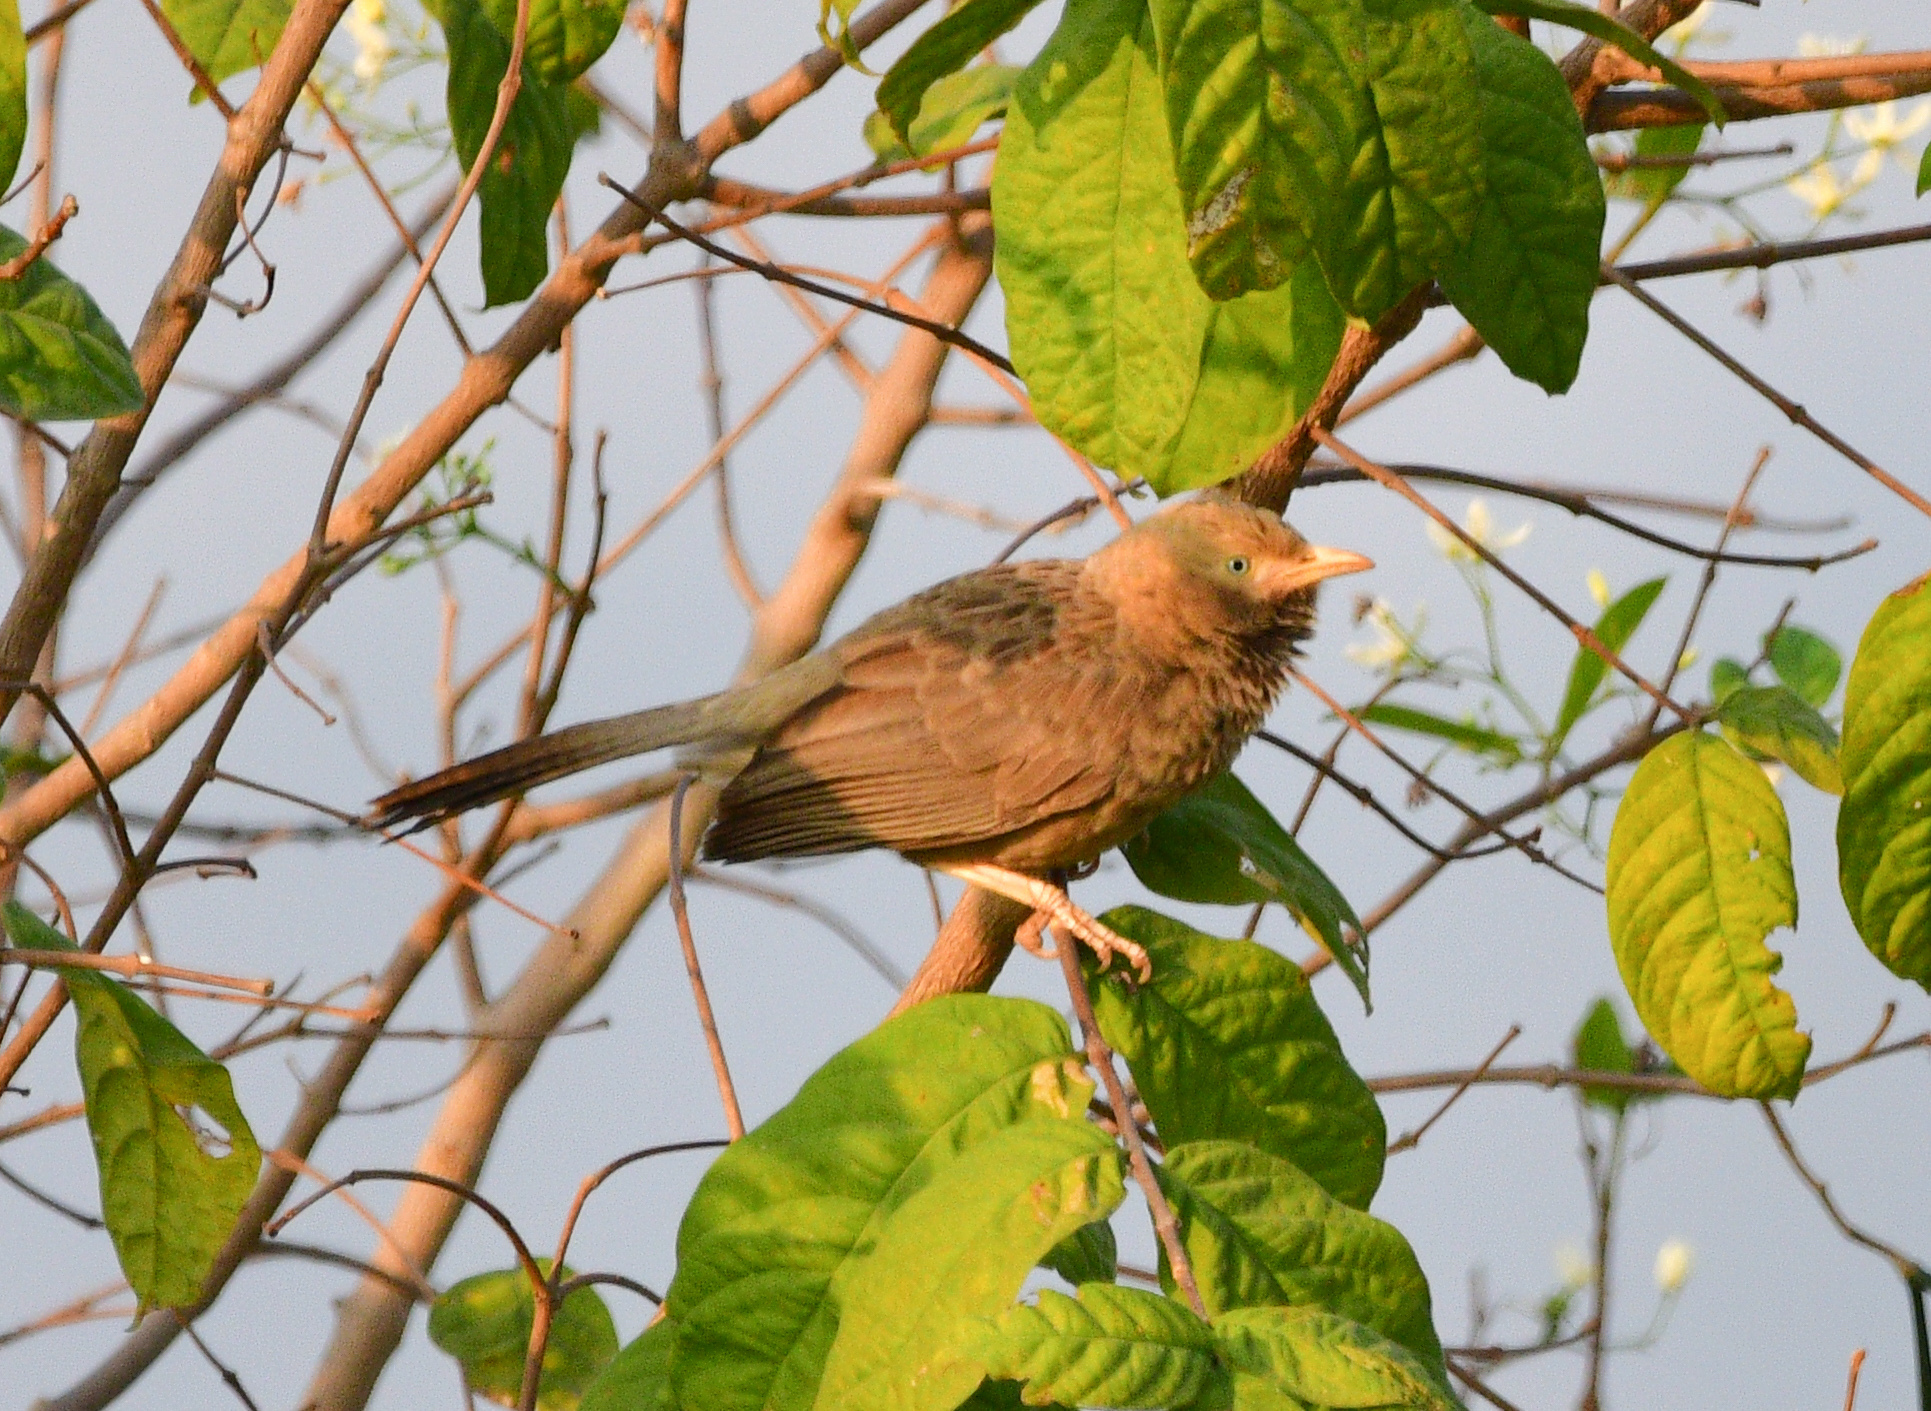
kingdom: Animalia
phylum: Chordata
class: Aves
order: Passeriformes
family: Leiothrichidae
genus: Turdoides
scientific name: Turdoides affinis
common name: Yellow-billed babbler
